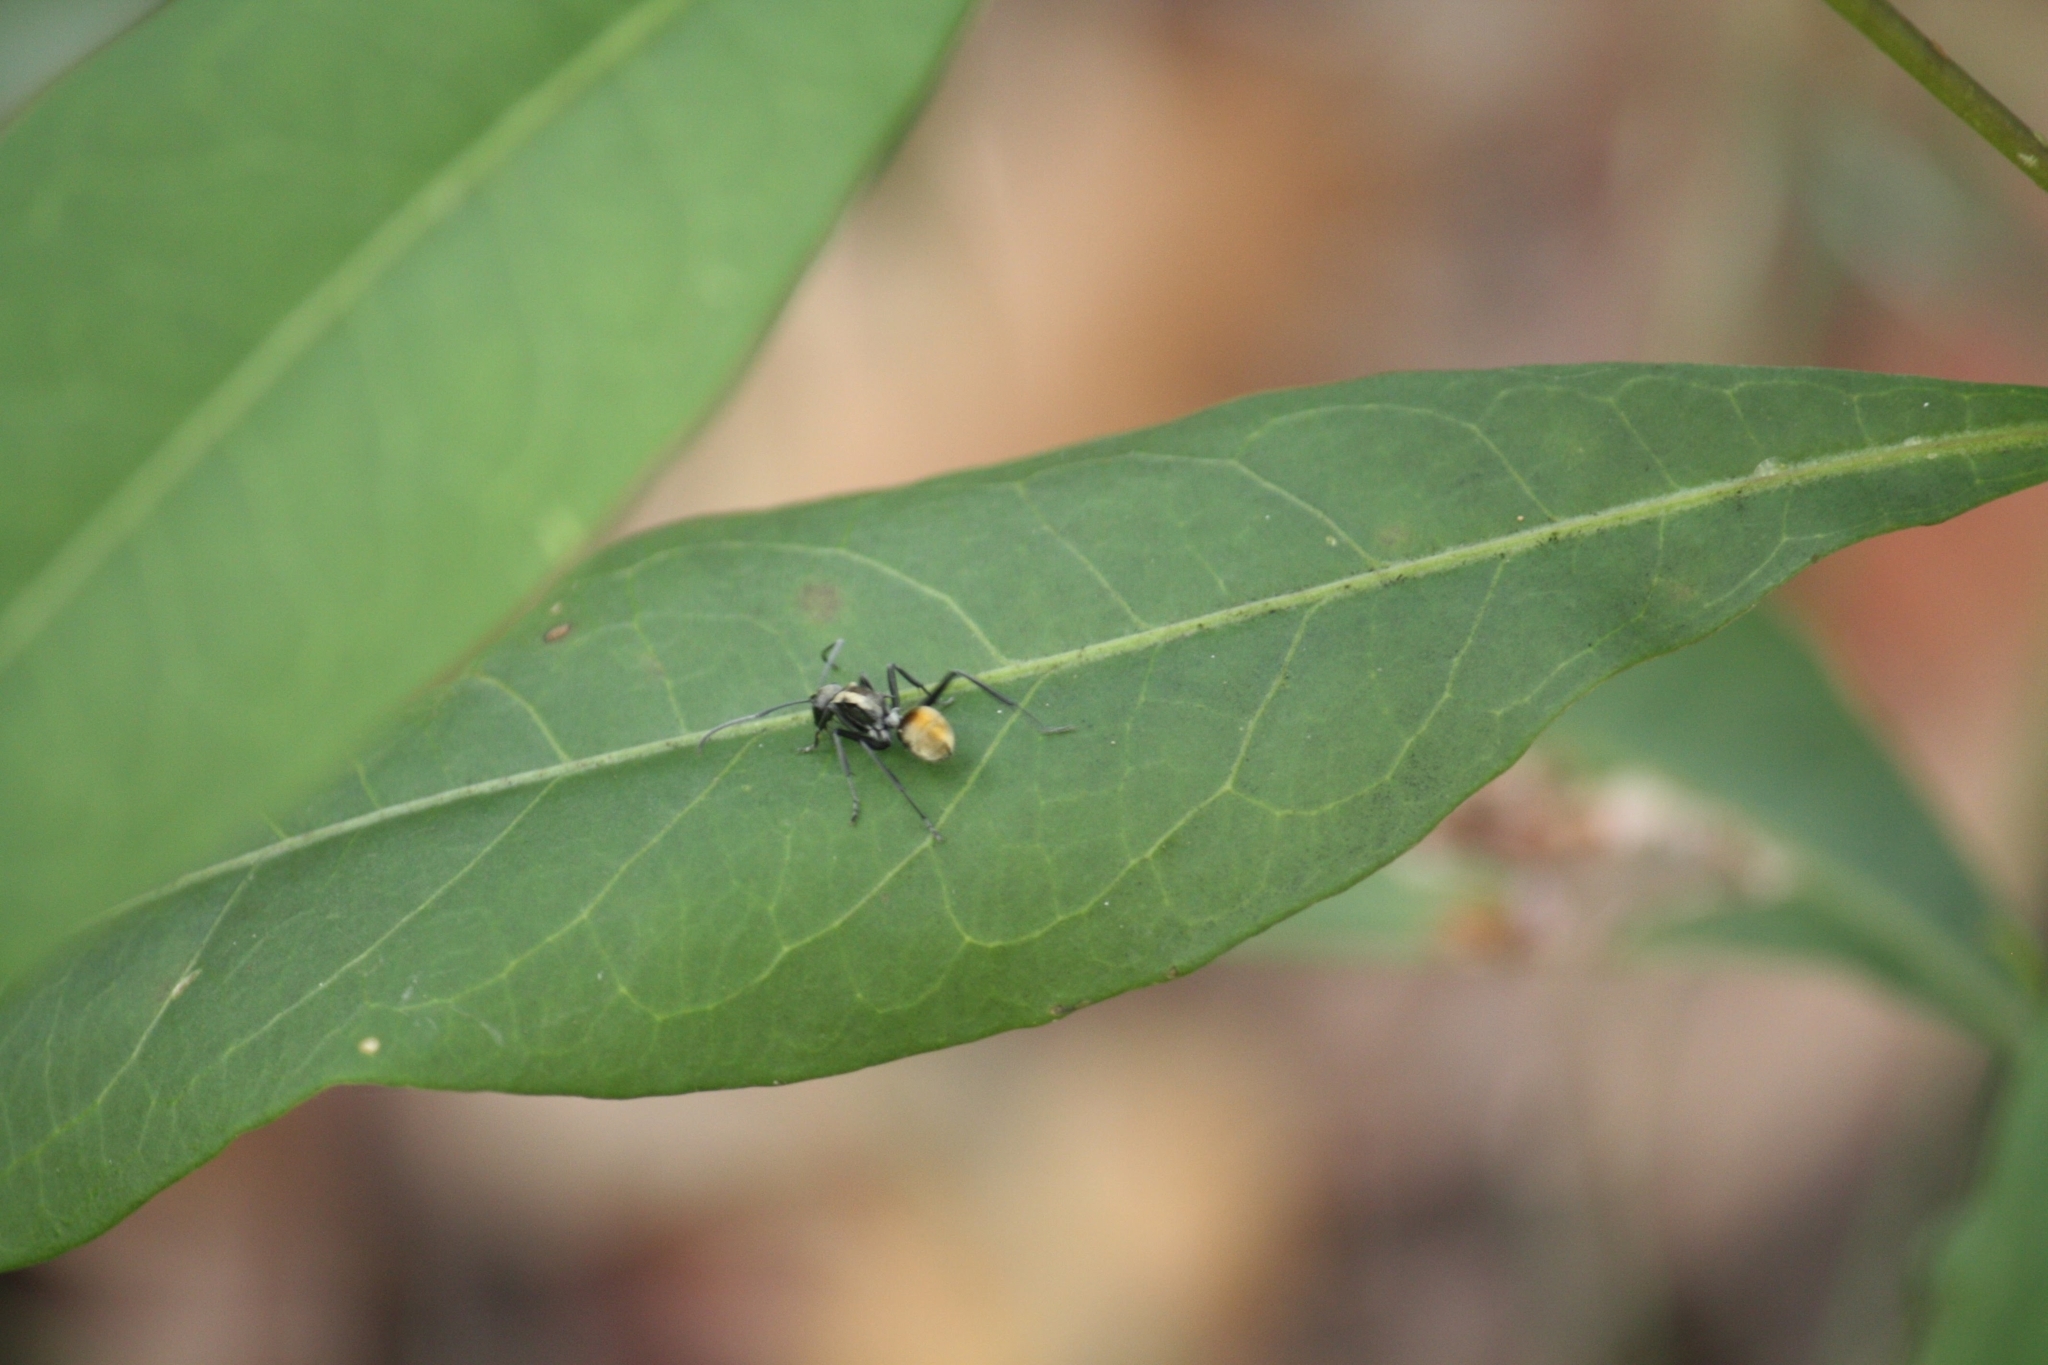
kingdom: Animalia
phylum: Arthropoda
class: Insecta
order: Hymenoptera
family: Formicidae
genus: Polyrhachis
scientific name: Polyrhachis ammon
